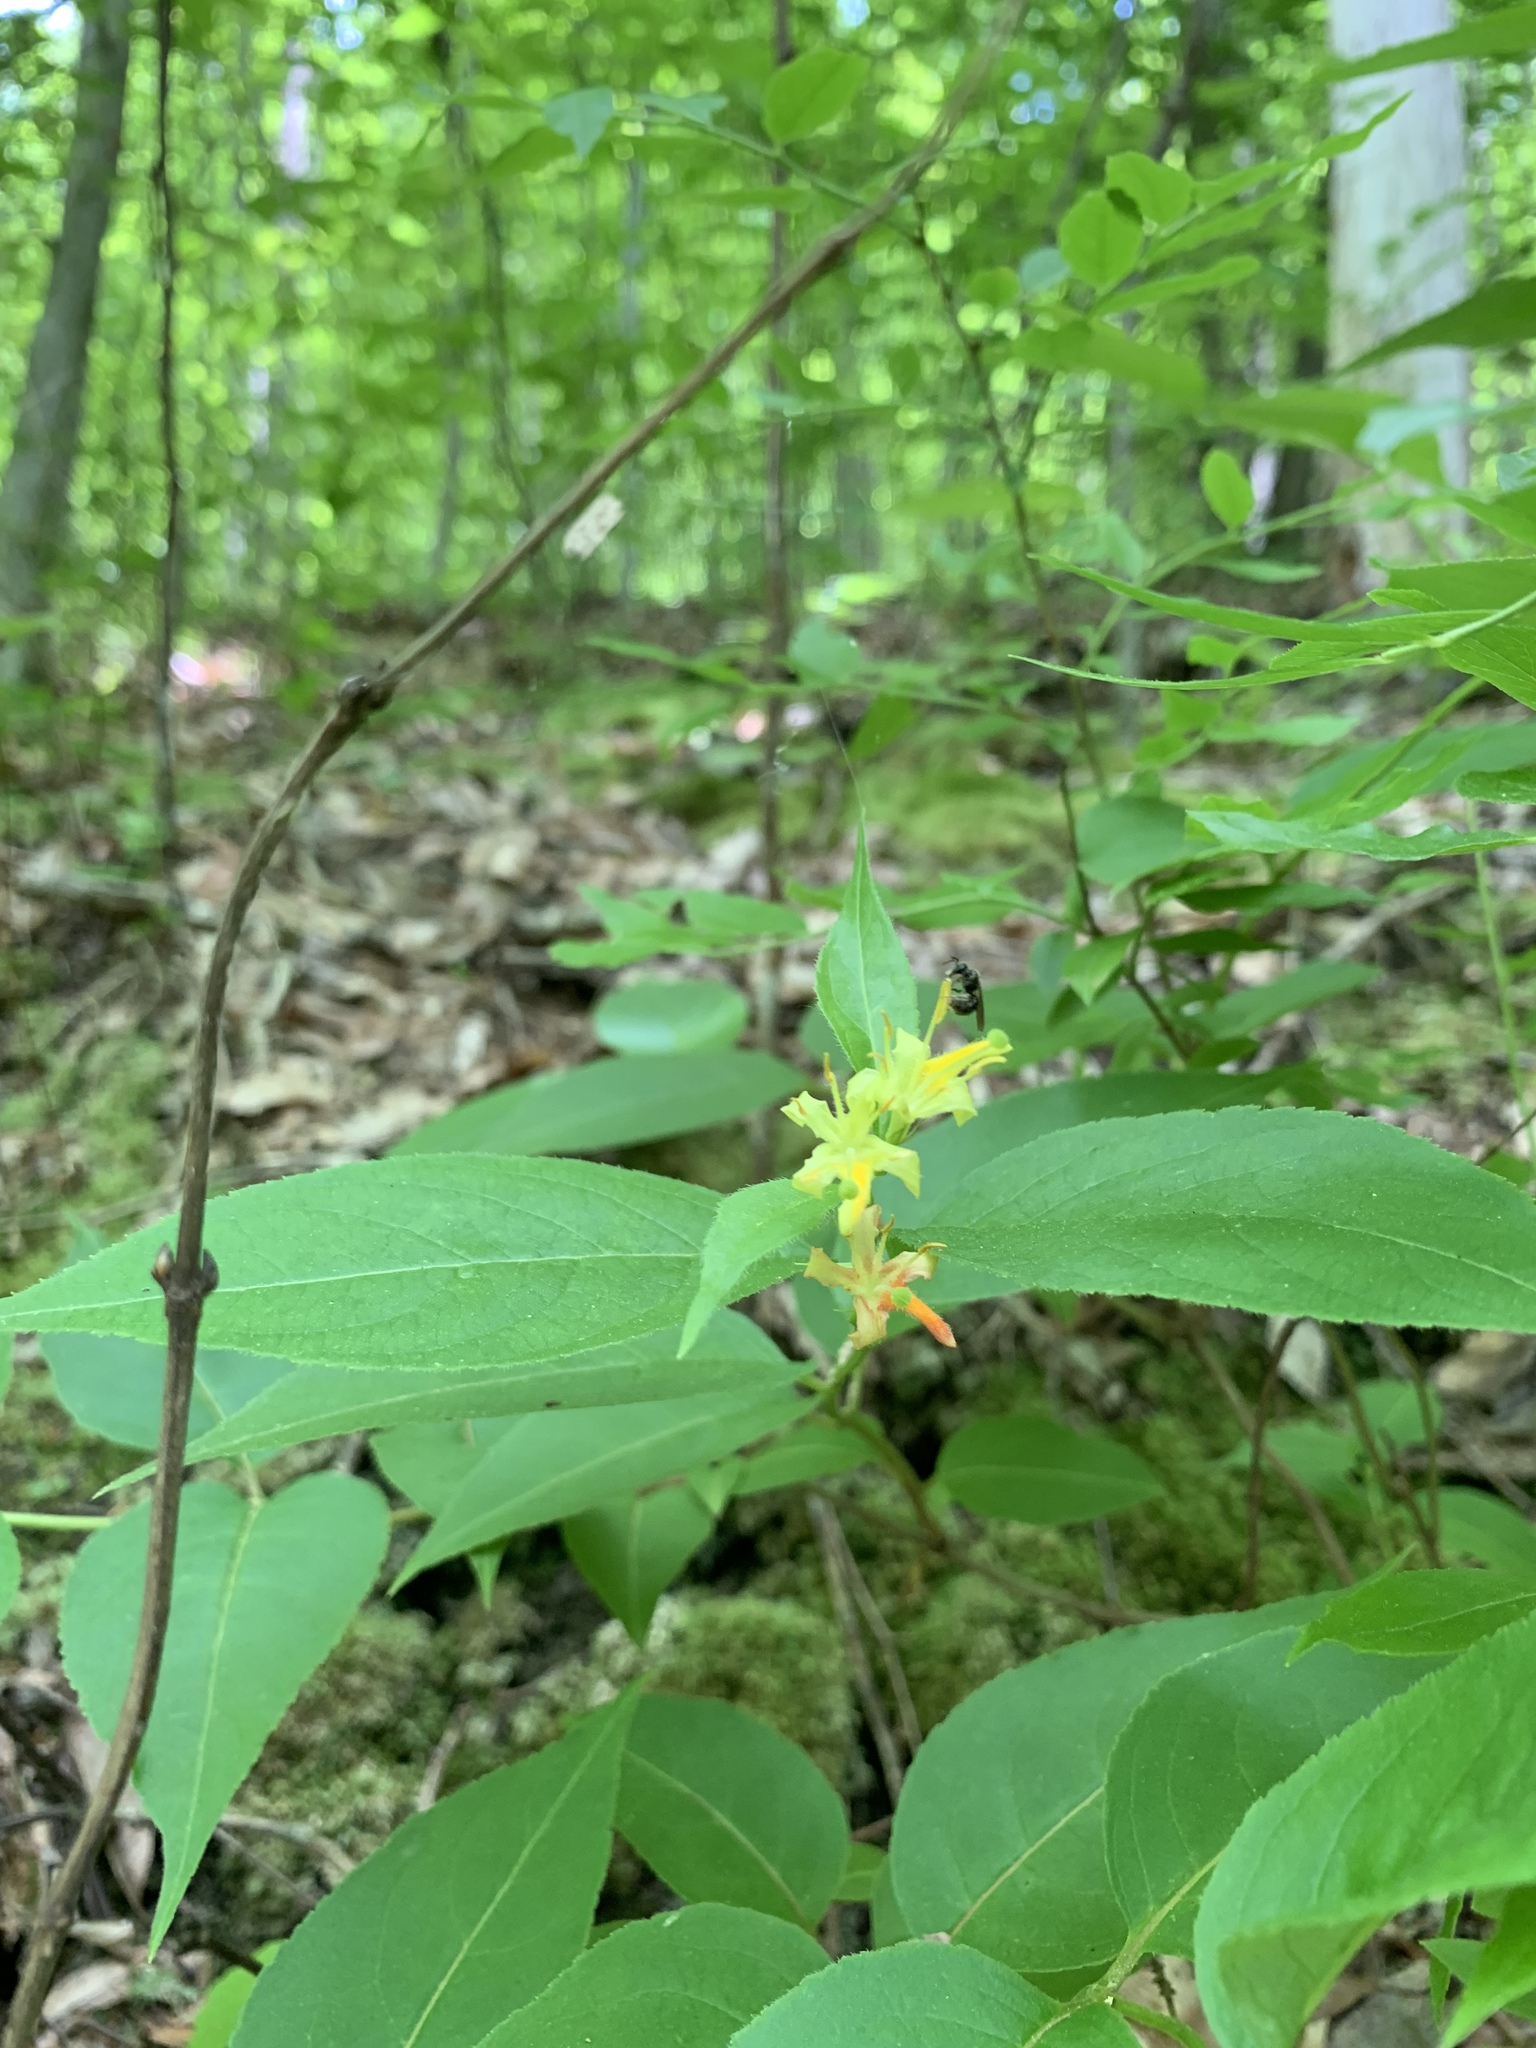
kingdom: Plantae
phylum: Tracheophyta
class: Magnoliopsida
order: Dipsacales
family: Caprifoliaceae
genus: Diervilla
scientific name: Diervilla lonicera
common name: Bush-honeysuckle
